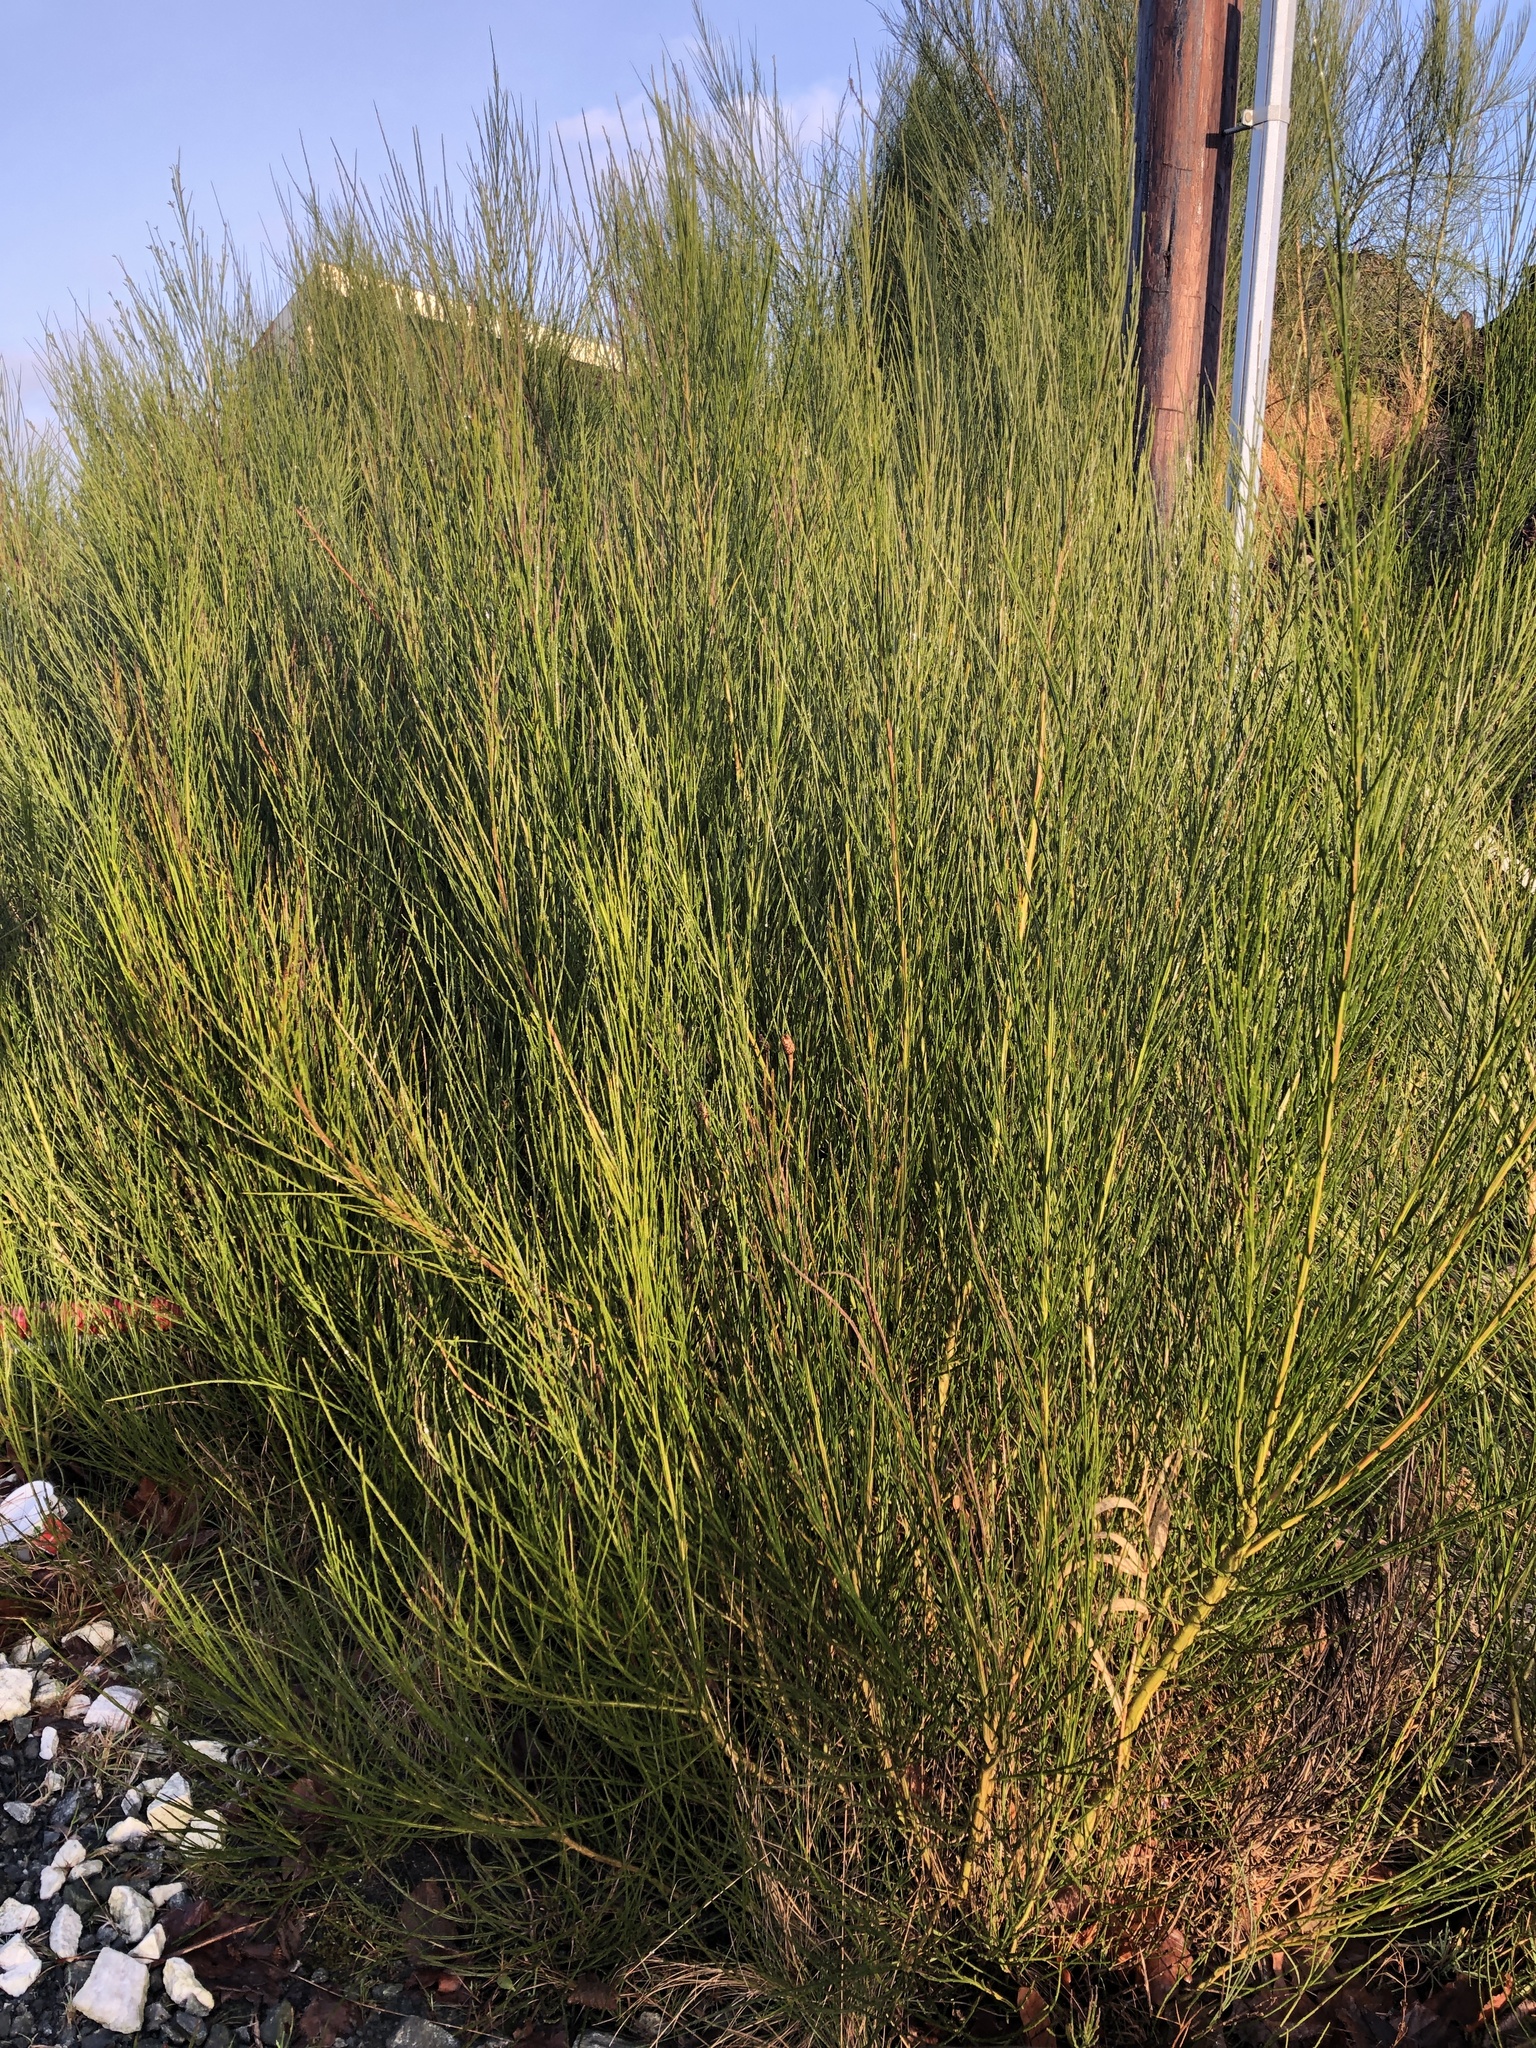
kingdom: Plantae
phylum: Tracheophyta
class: Magnoliopsida
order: Fabales
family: Fabaceae
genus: Cytisus
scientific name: Cytisus scoparius
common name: Scotch broom
